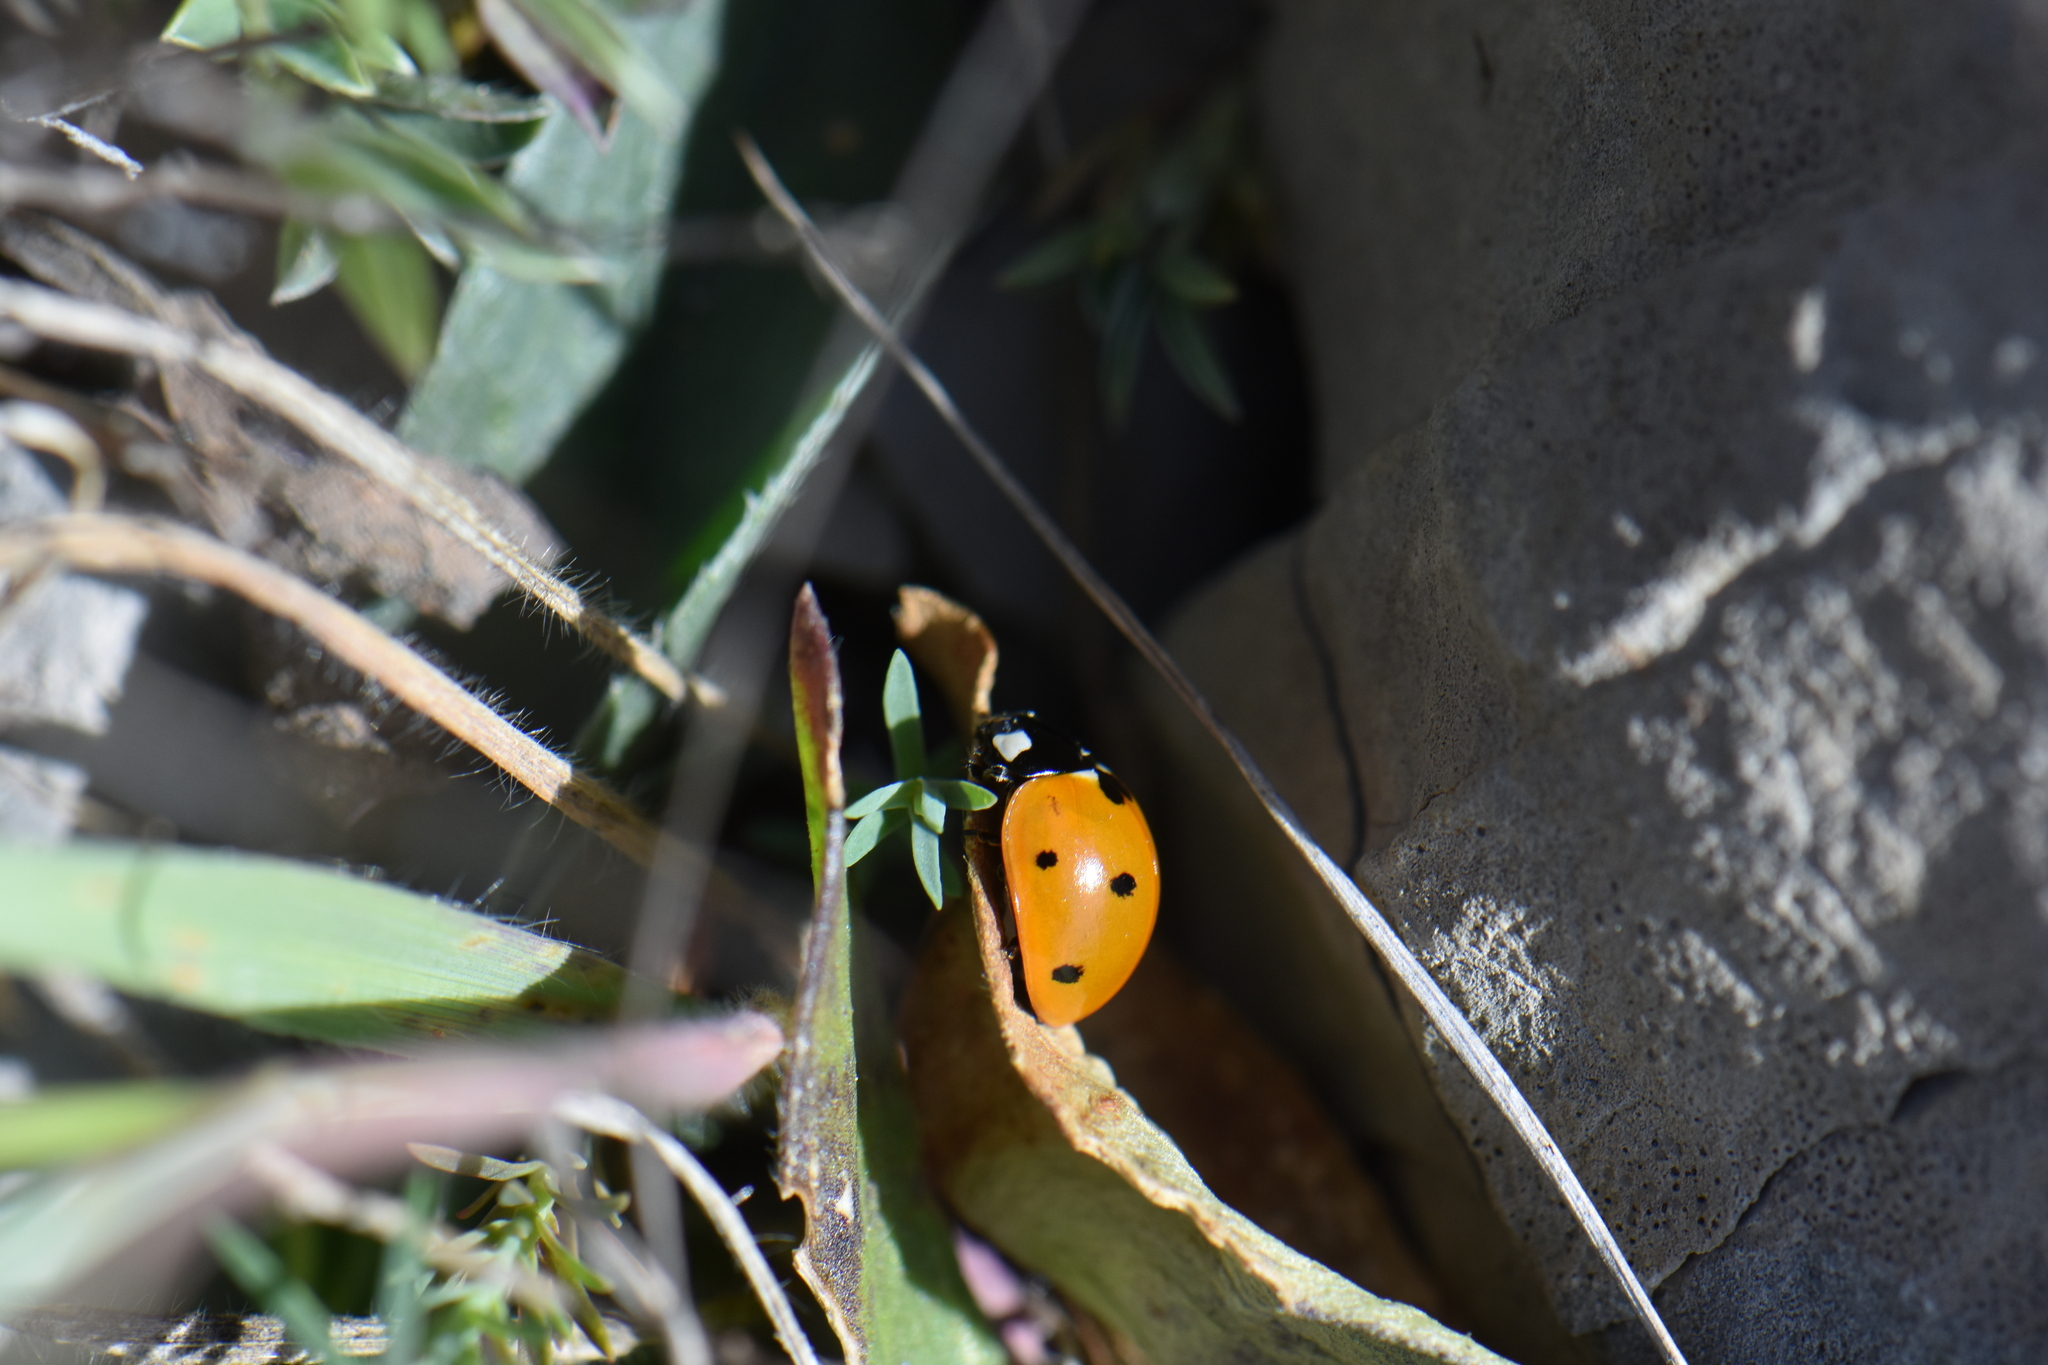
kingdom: Animalia
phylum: Arthropoda
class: Insecta
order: Coleoptera
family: Coccinellidae
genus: Coccinella
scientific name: Coccinella septempunctata
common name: Sevenspotted lady beetle
